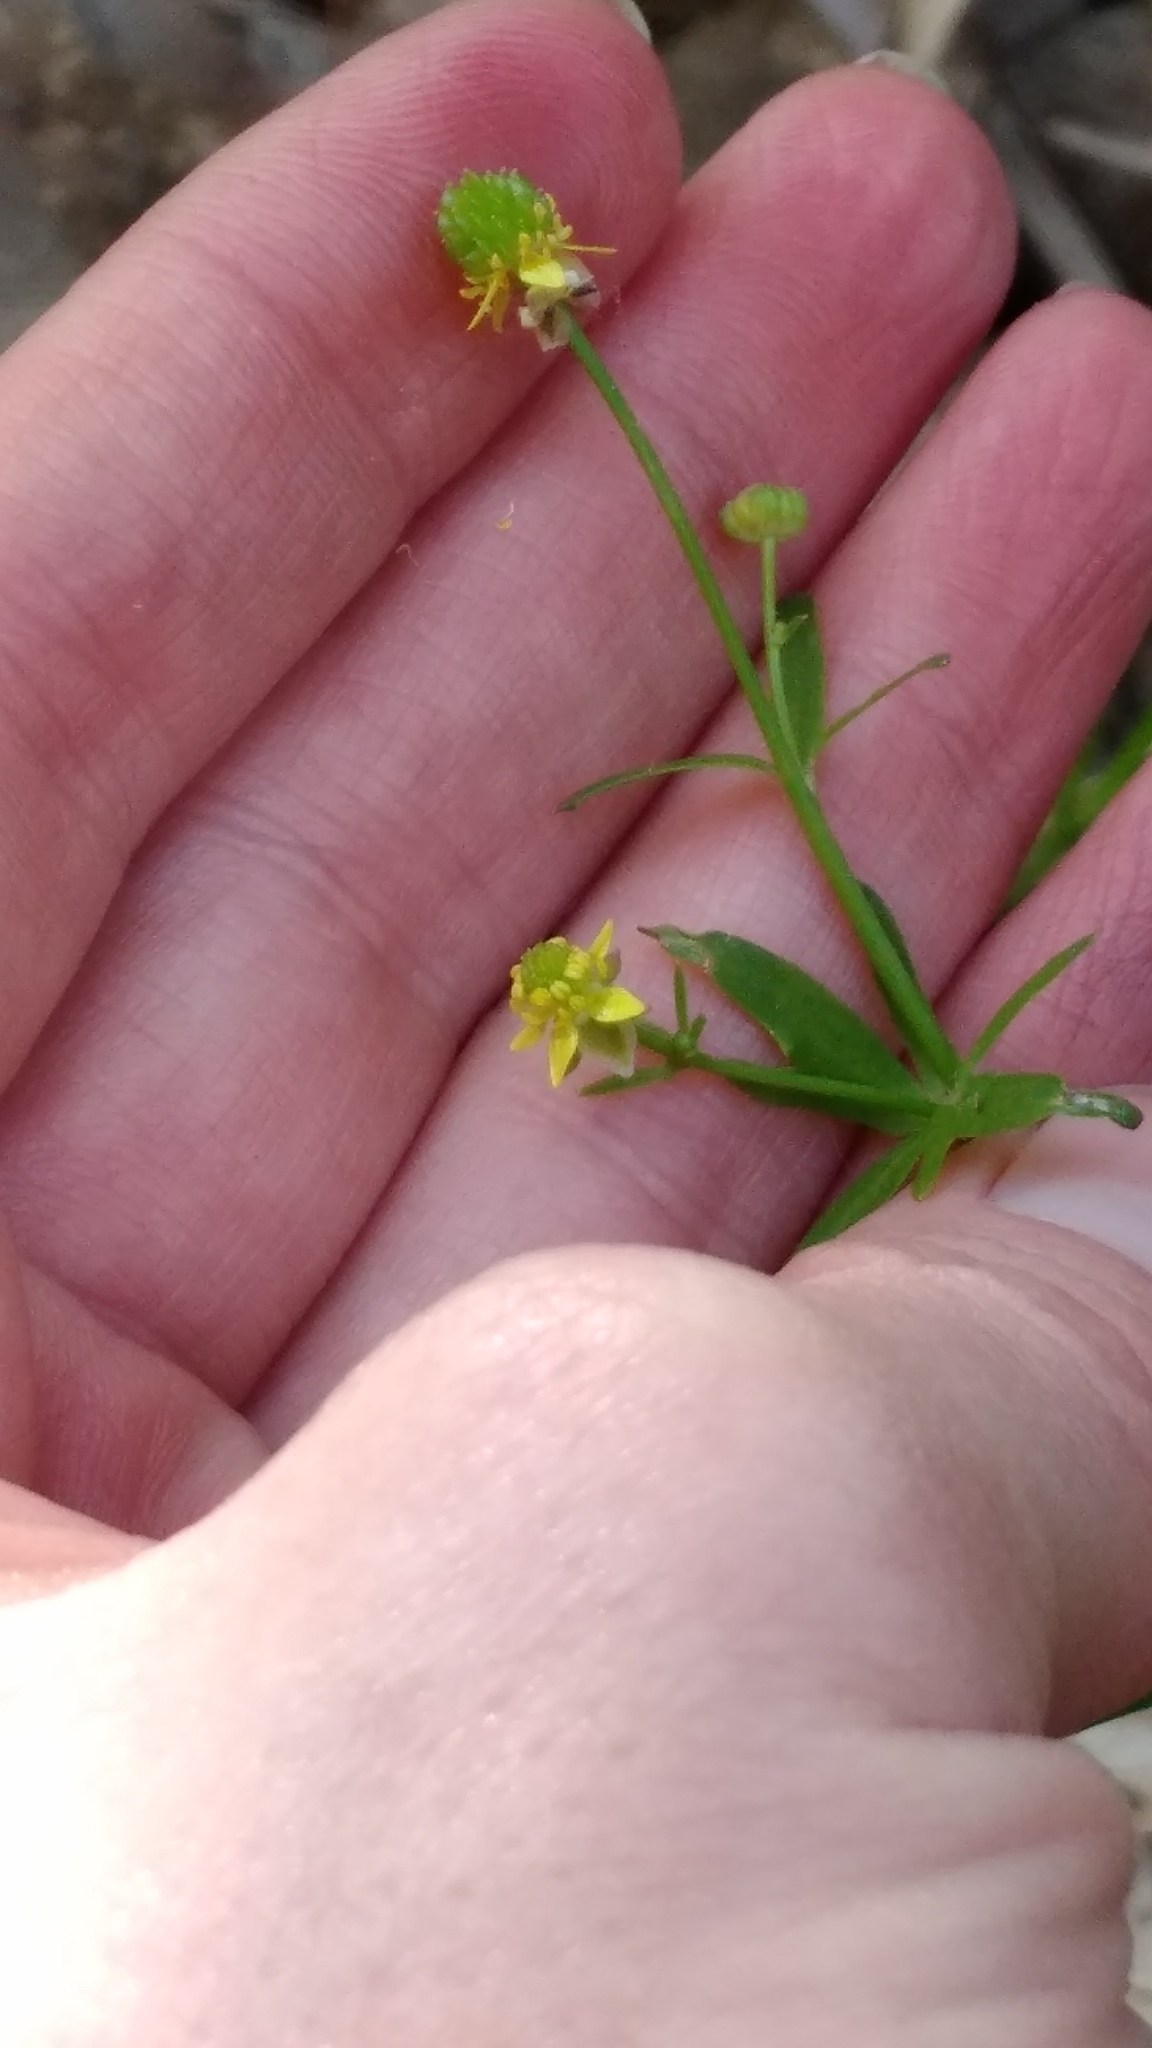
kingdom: Plantae
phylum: Tracheophyta
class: Magnoliopsida
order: Ranunculales
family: Ranunculaceae
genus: Ranunculus
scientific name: Ranunculus abortivus
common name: Early wood buttercup
